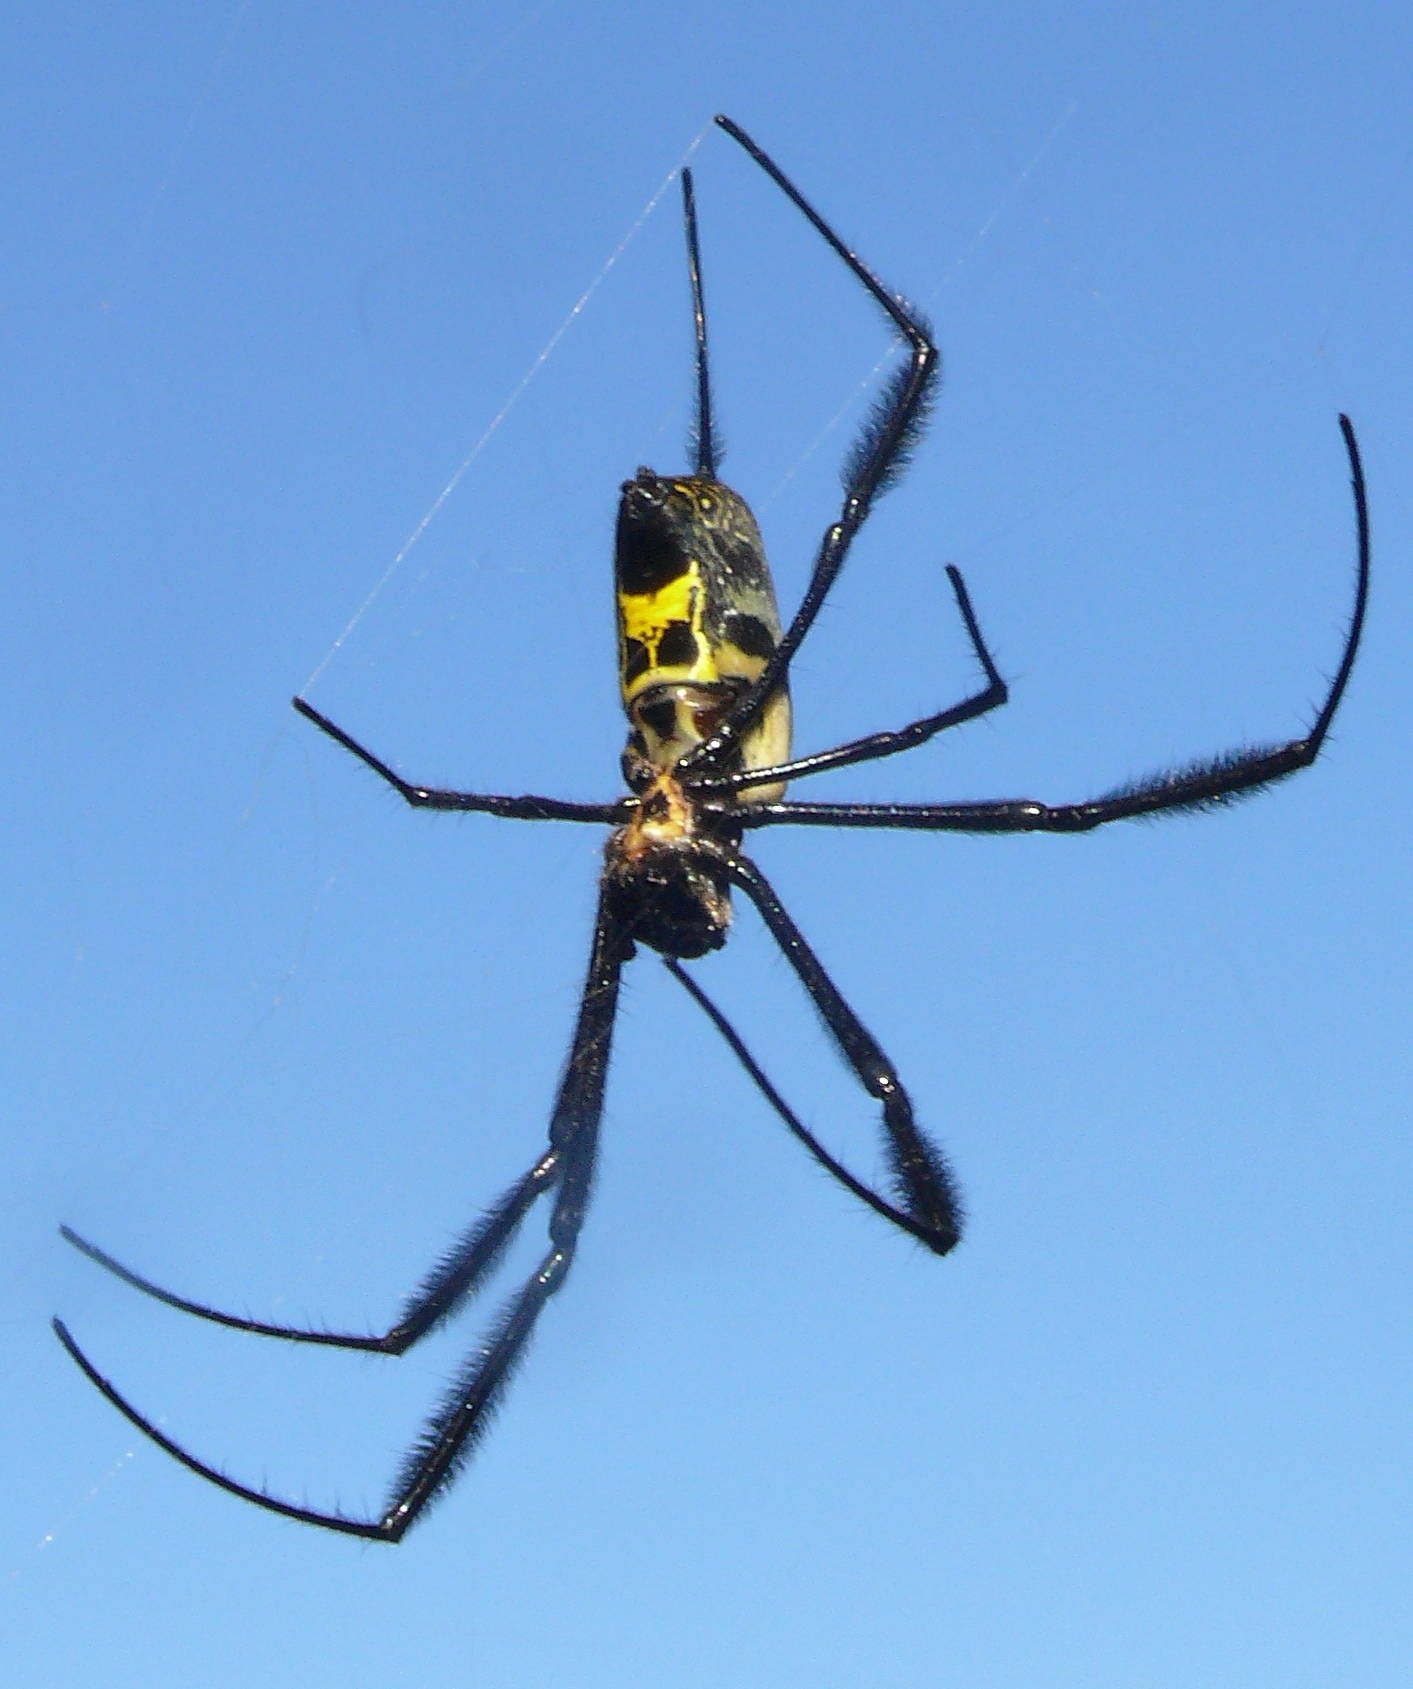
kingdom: Animalia
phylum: Arthropoda
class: Arachnida
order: Araneae
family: Araneidae
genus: Trichonephila
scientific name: Trichonephila fenestrata
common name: Hairy golden orb weaver
